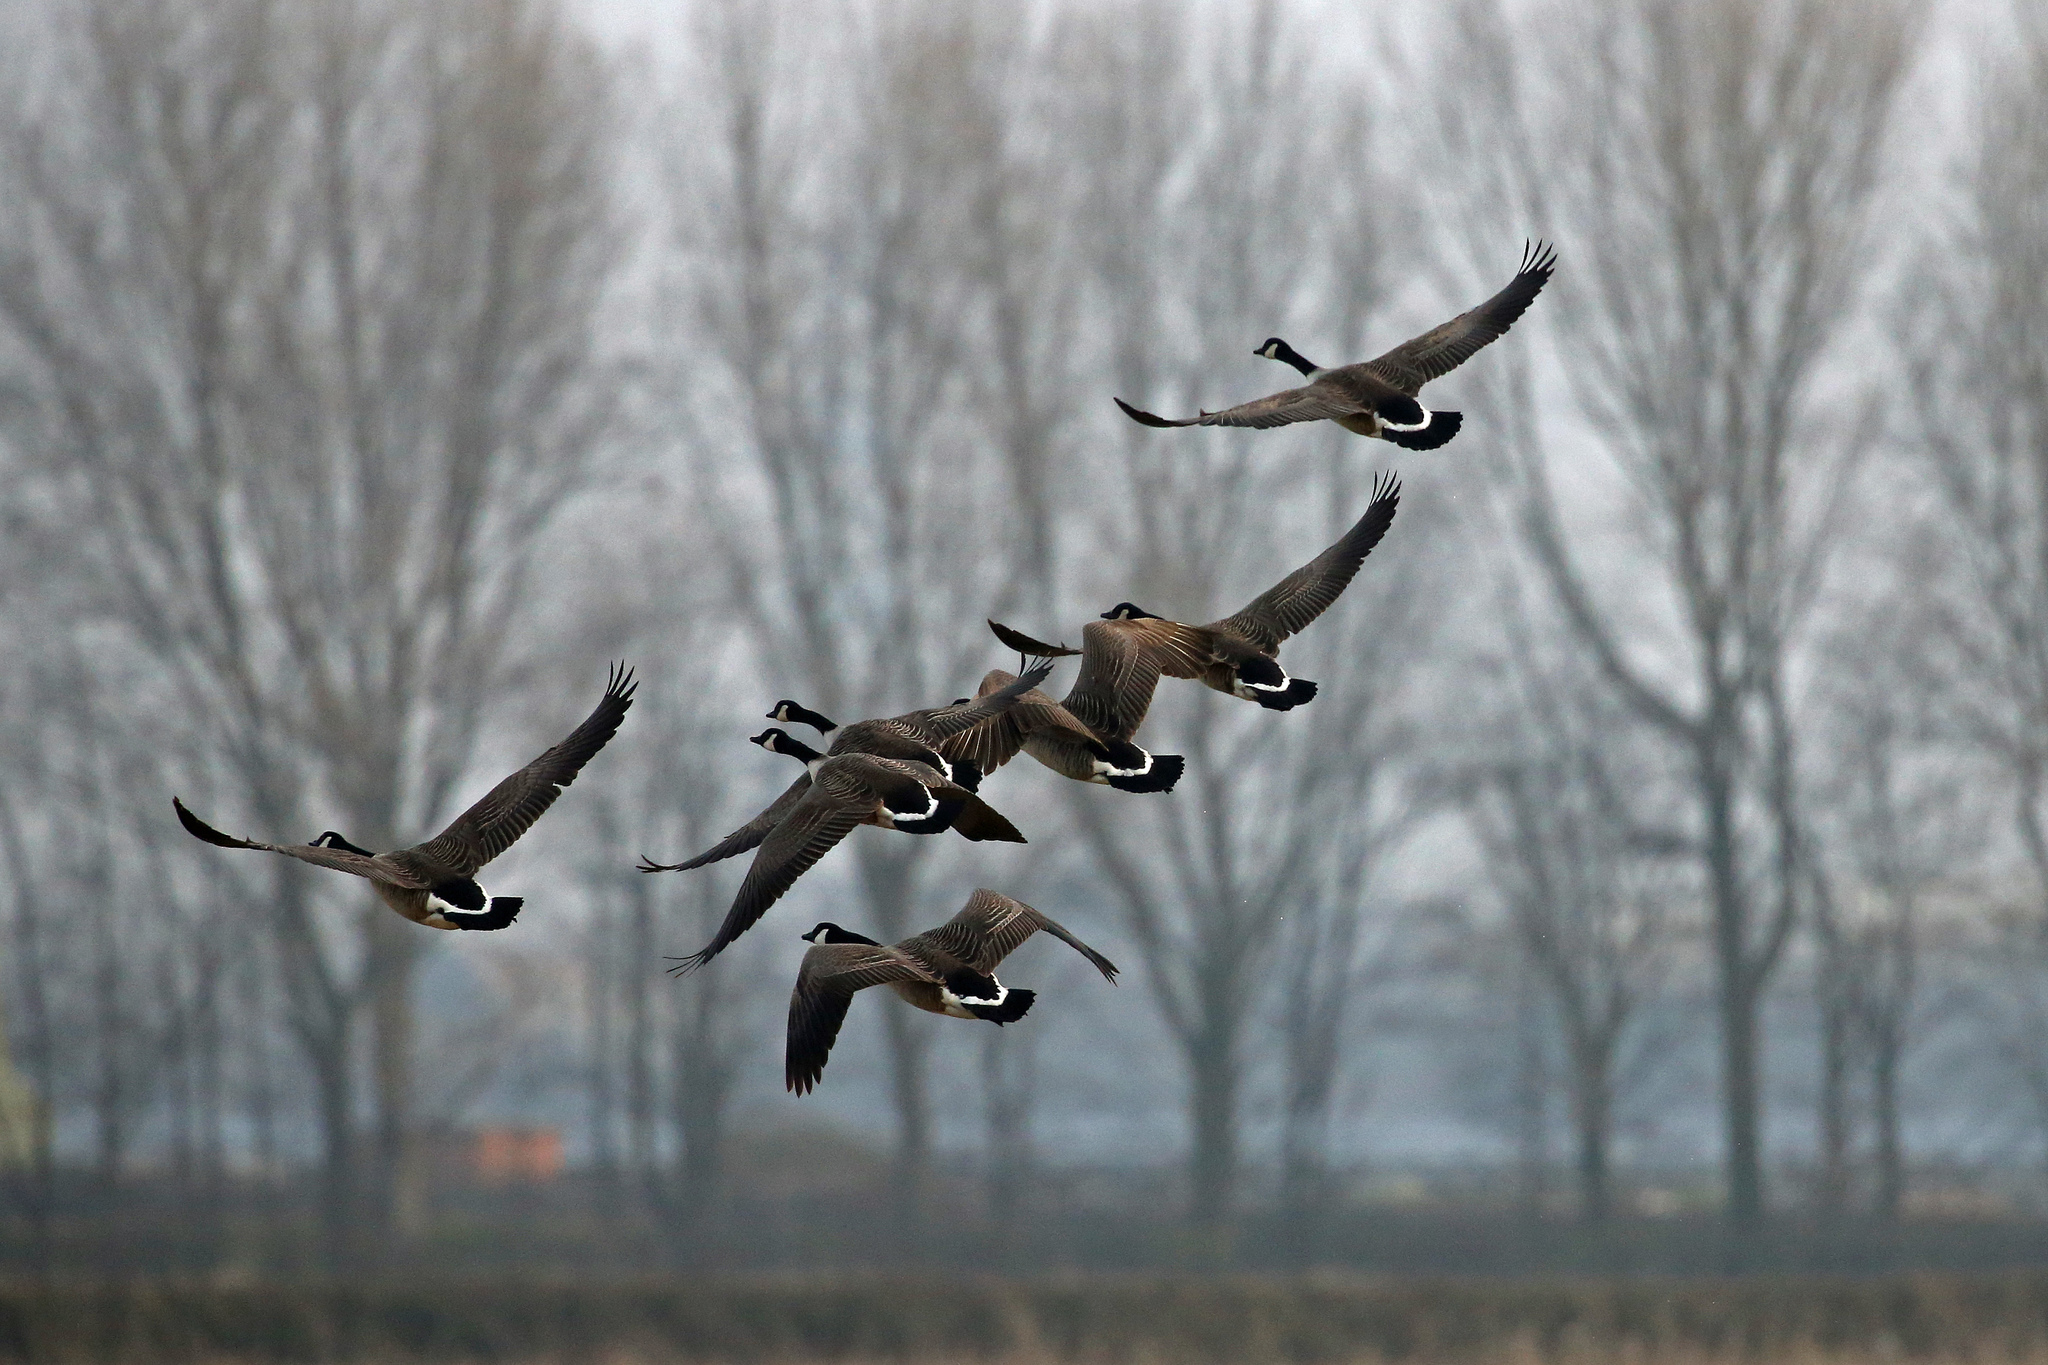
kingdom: Animalia
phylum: Chordata
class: Aves
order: Anseriformes
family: Anatidae
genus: Branta
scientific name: Branta canadensis
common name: Canada goose
